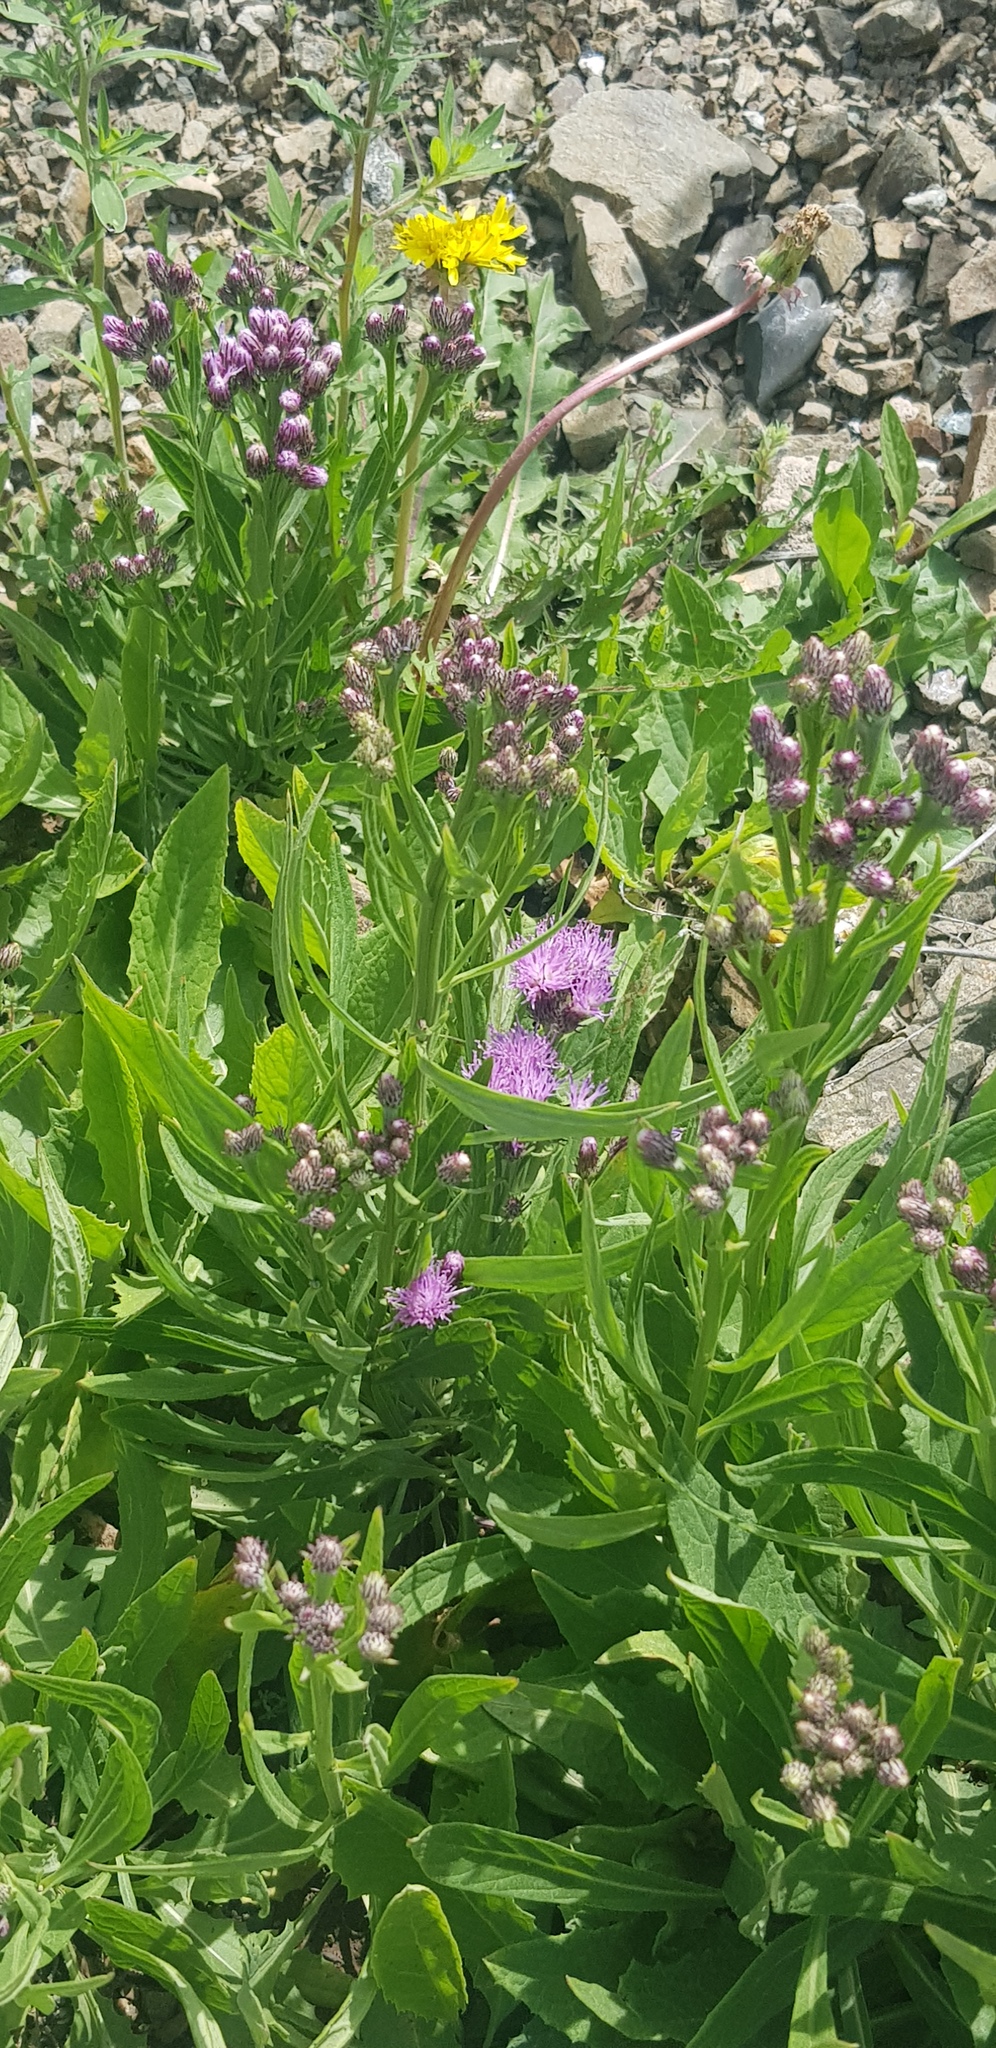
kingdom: Plantae
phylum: Tracheophyta
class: Magnoliopsida
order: Asterales
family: Asteraceae
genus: Saussurea
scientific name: Saussurea salicifolia
